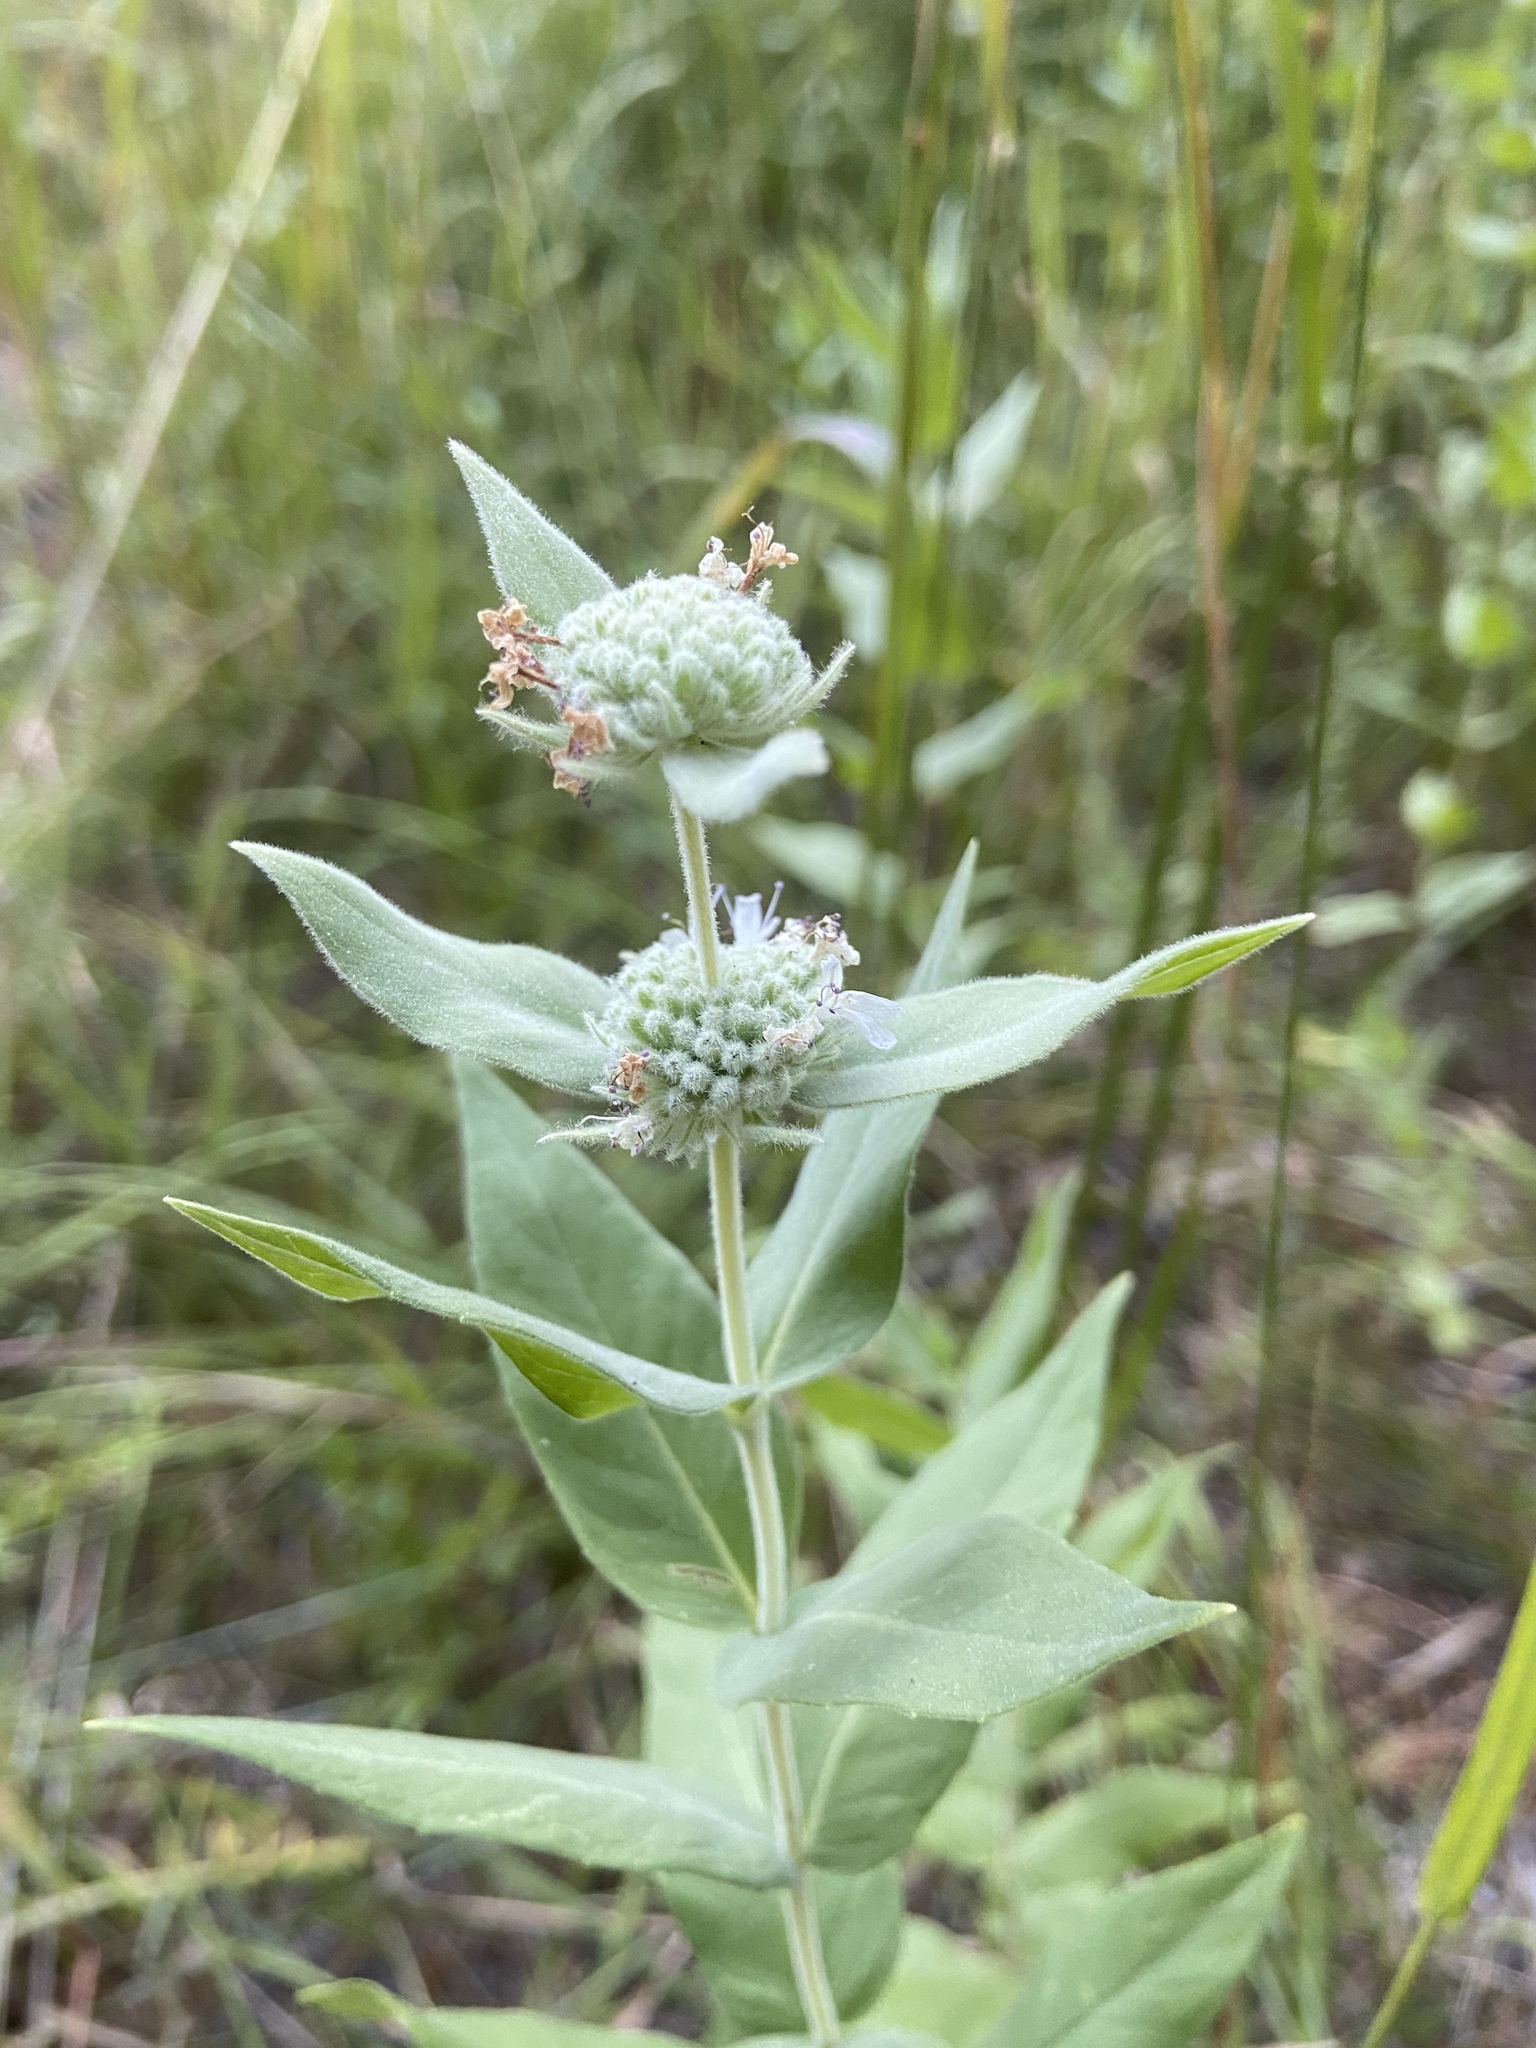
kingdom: Plantae
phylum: Tracheophyta
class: Magnoliopsida
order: Lamiales
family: Lamiaceae
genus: Pycnanthemum
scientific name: Pycnanthemum californicum
